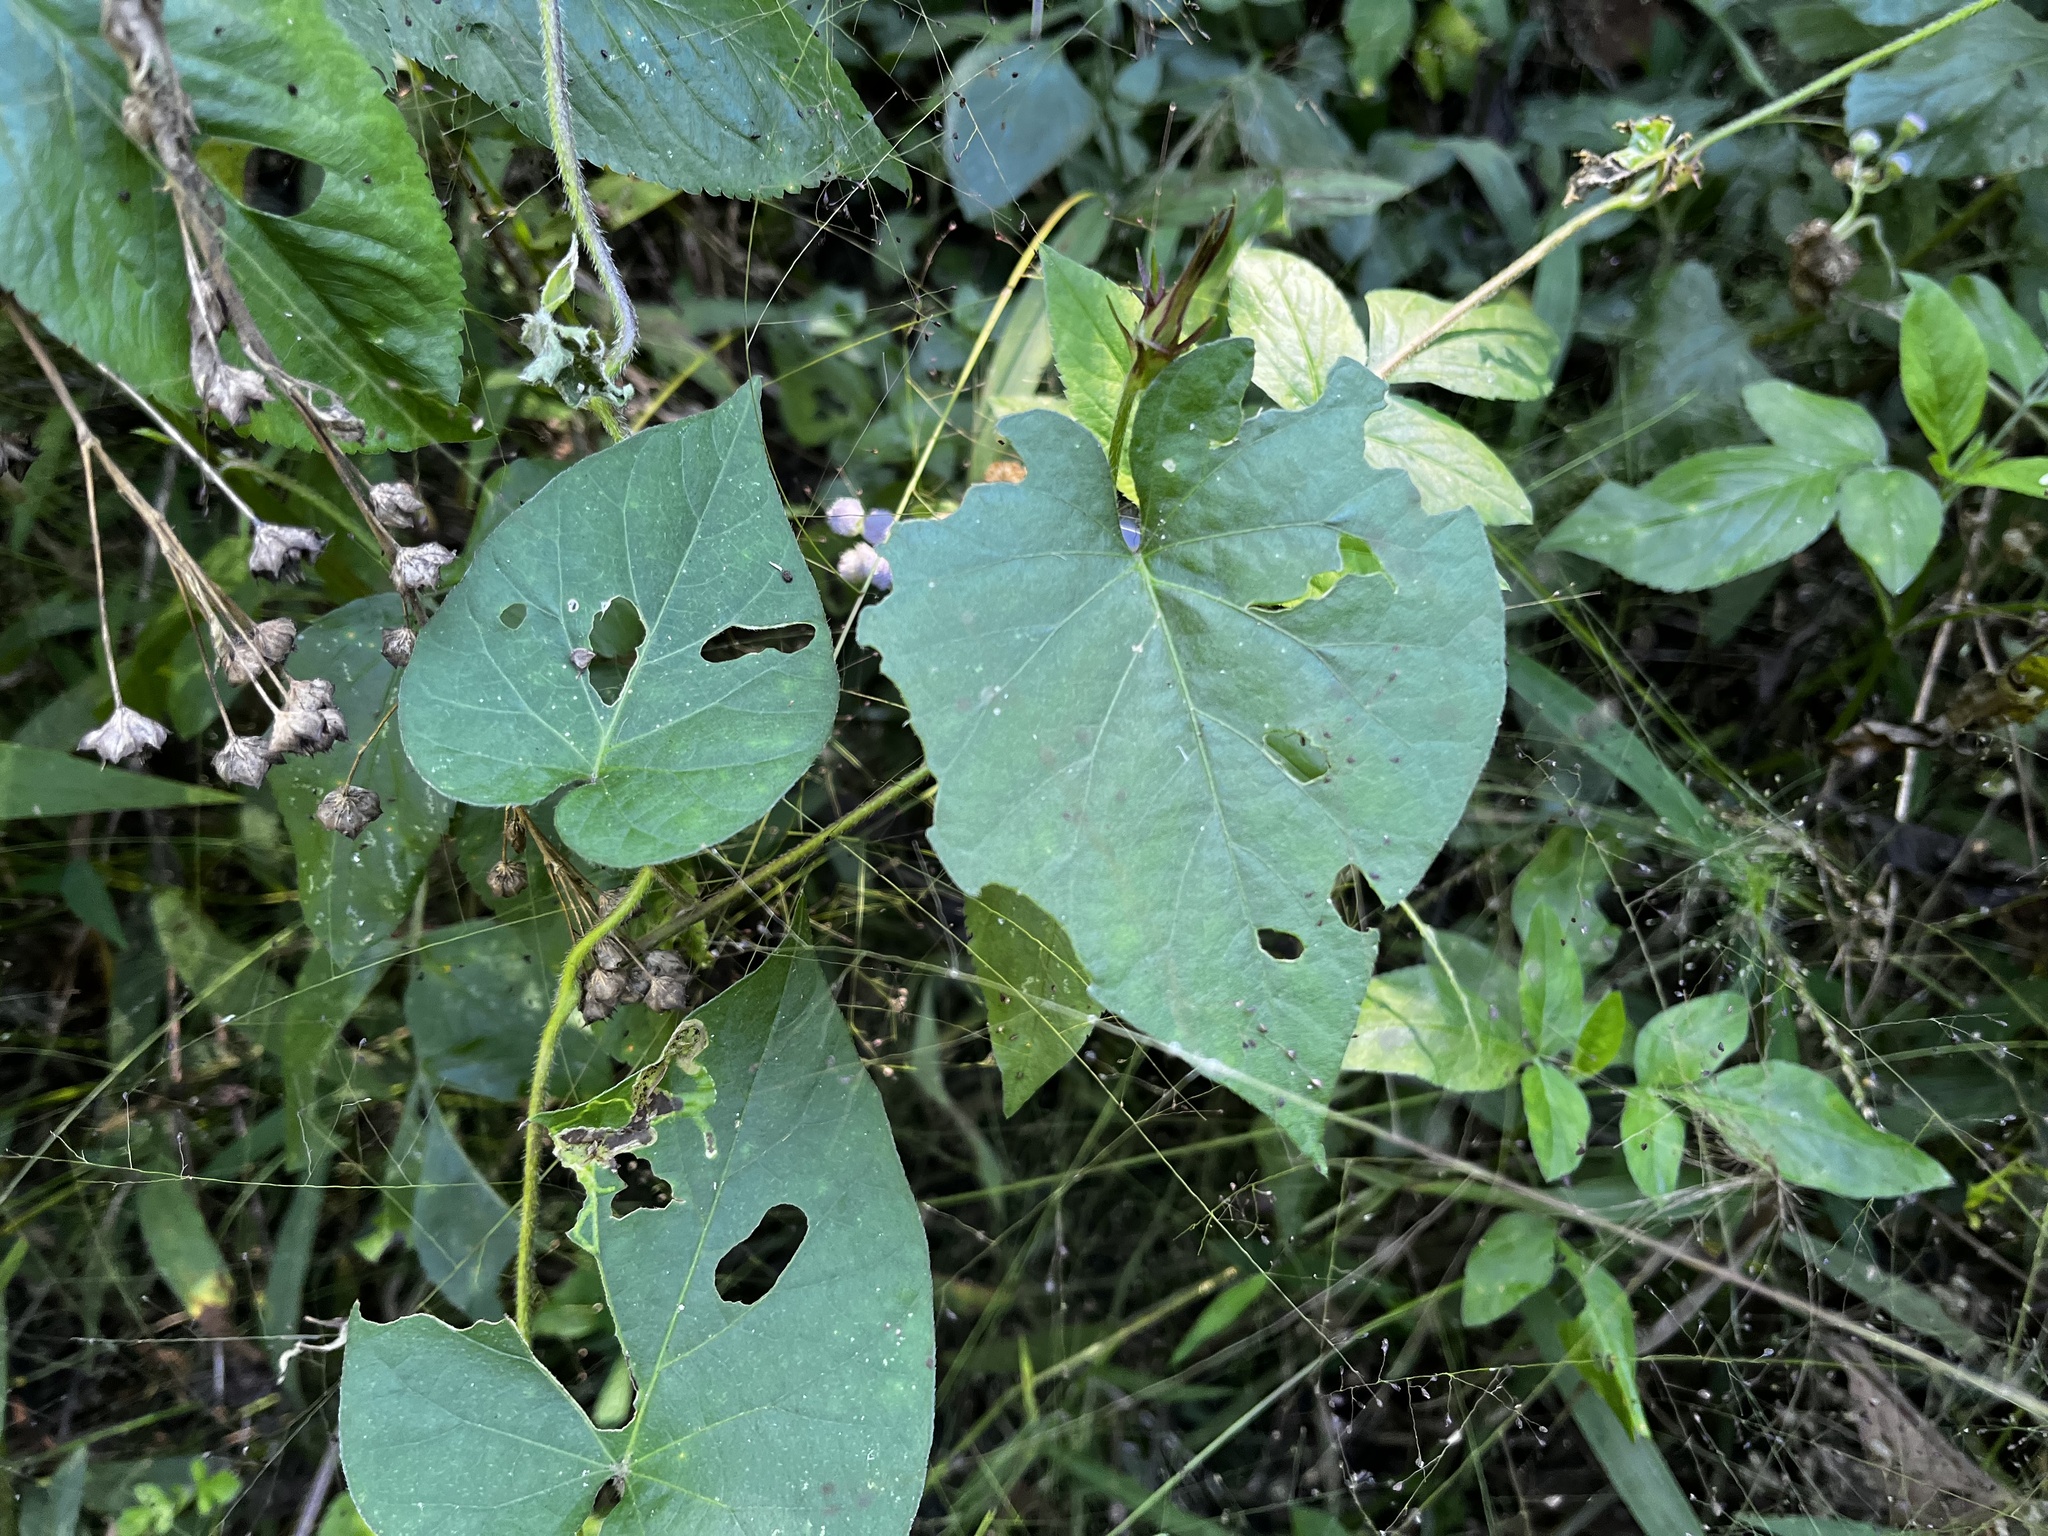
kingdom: Plantae
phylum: Tracheophyta
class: Magnoliopsida
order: Solanales
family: Convolvulaceae
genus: Ipomoea
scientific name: Ipomoea indica
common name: Blue dawnflower
